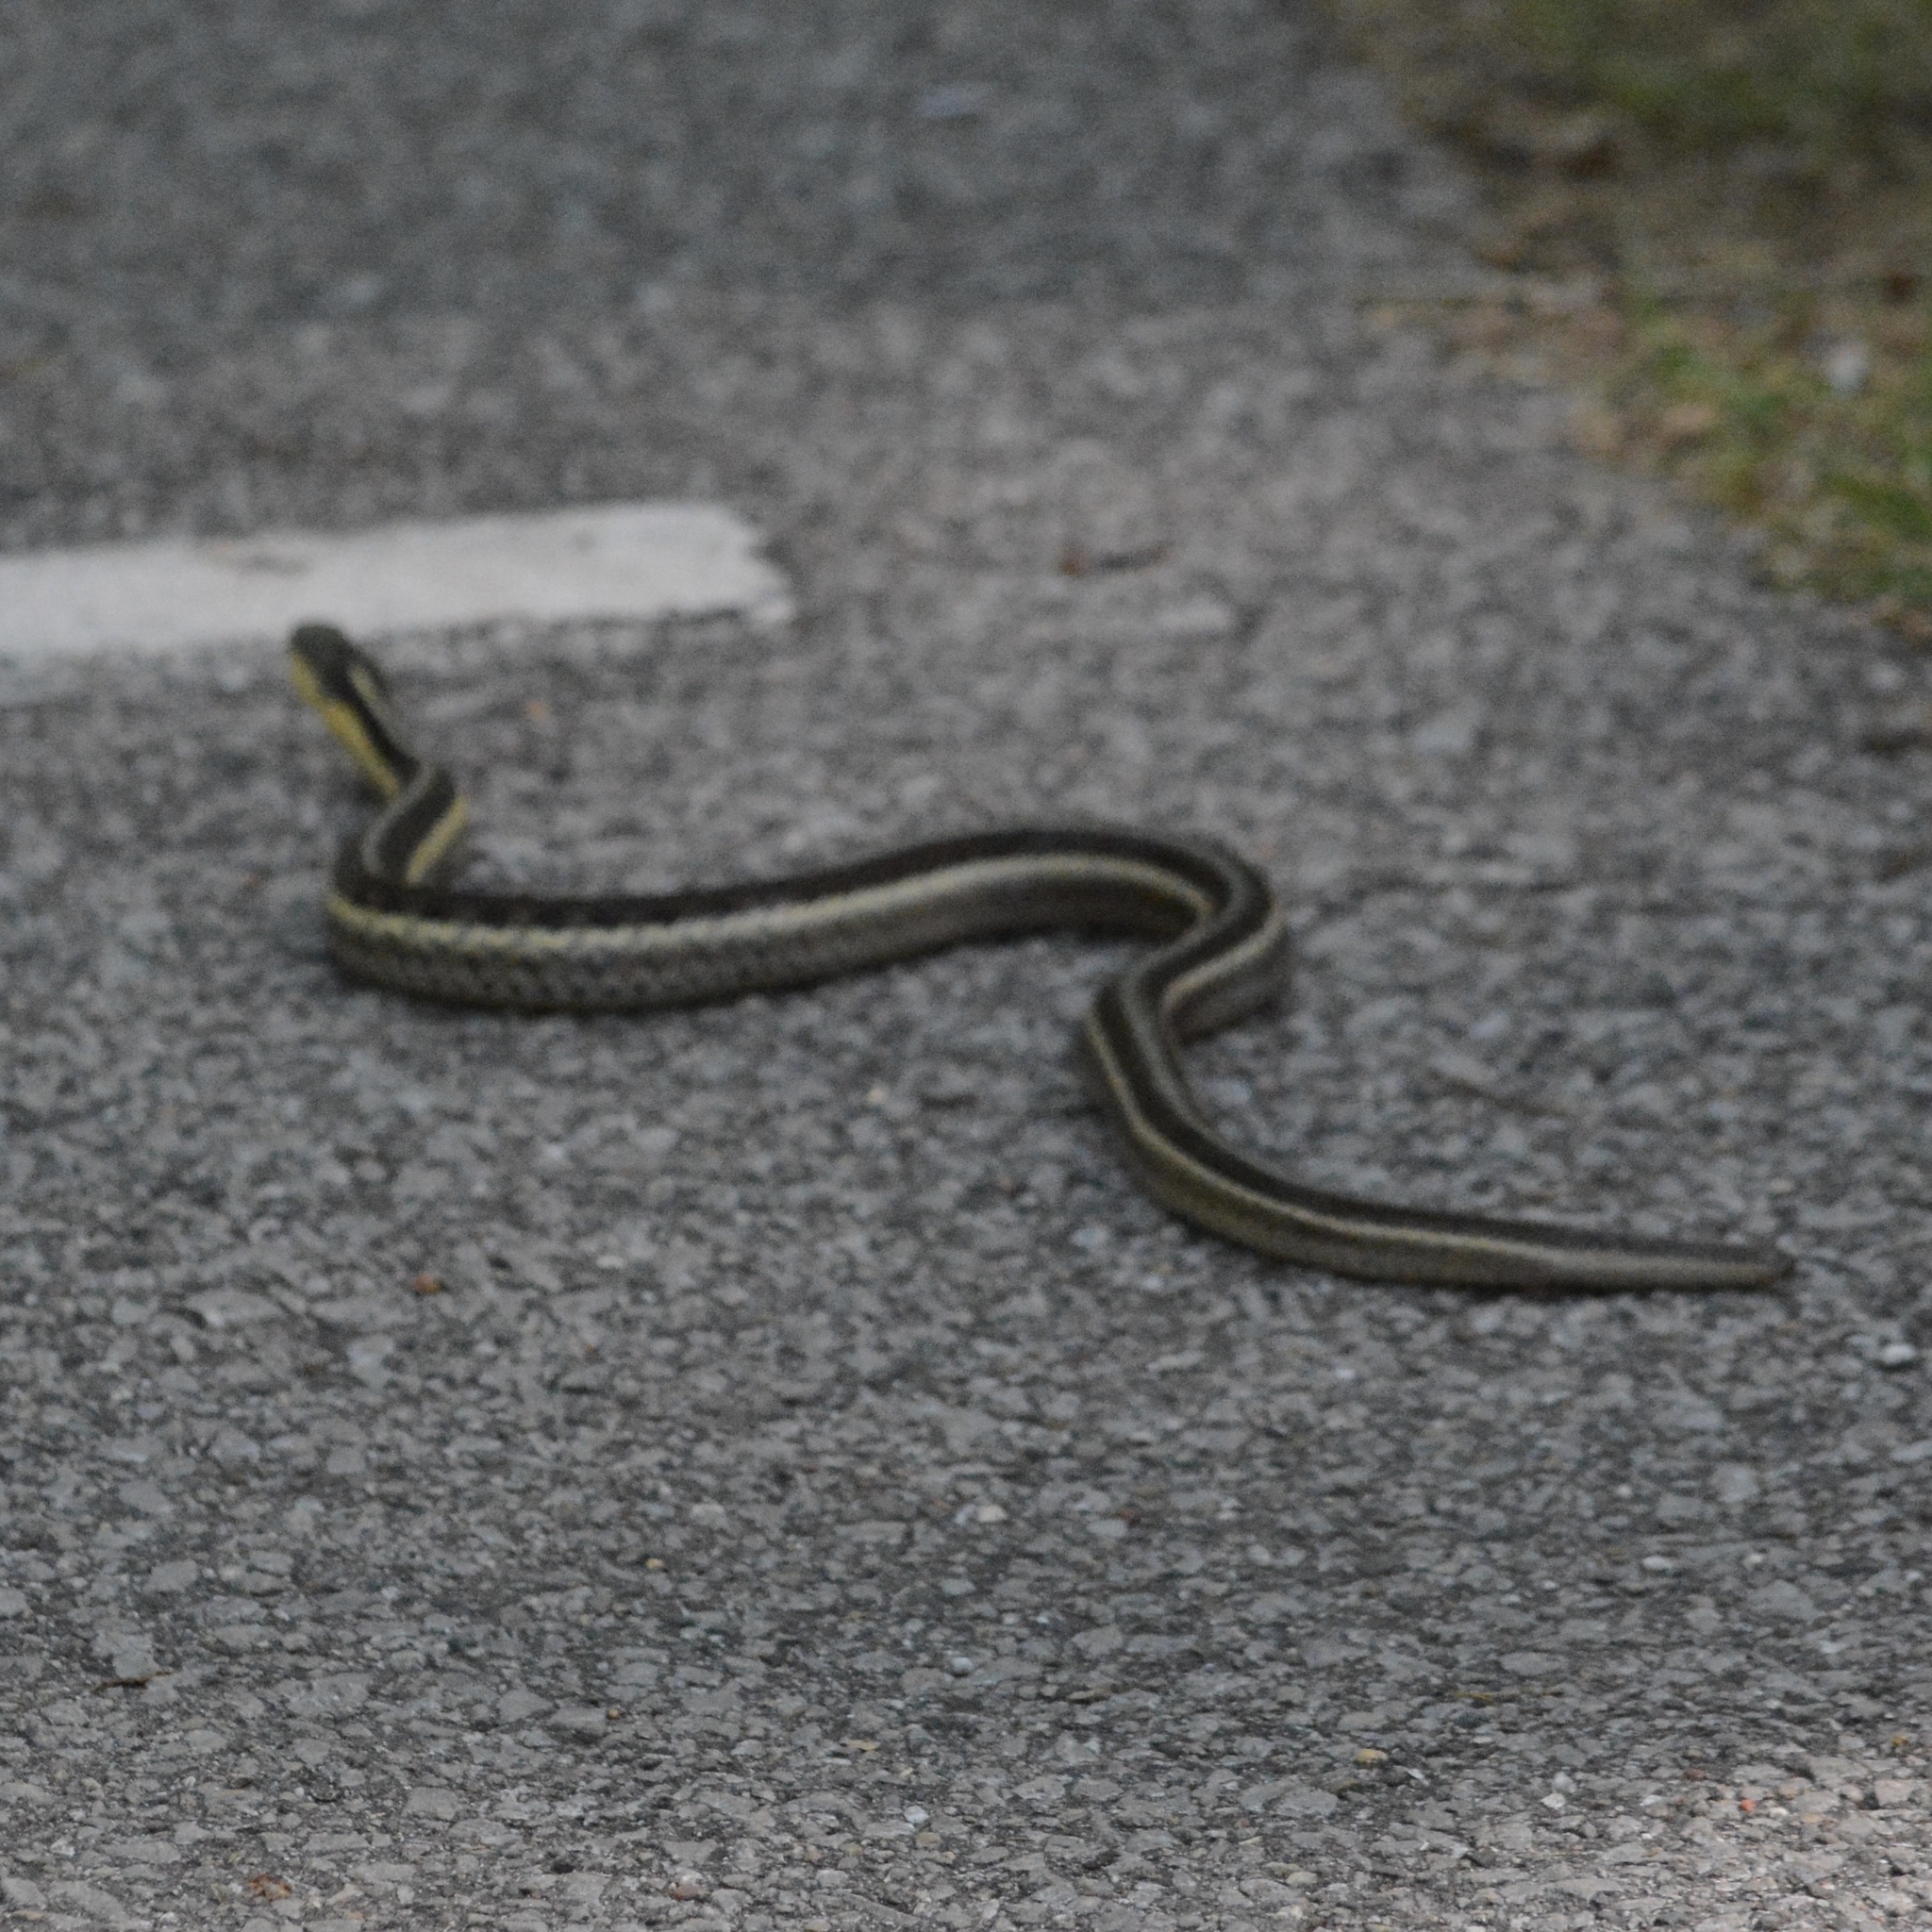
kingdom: Animalia
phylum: Chordata
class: Squamata
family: Colubridae
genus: Thamnophis
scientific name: Thamnophis sirtalis
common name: Common garter snake
